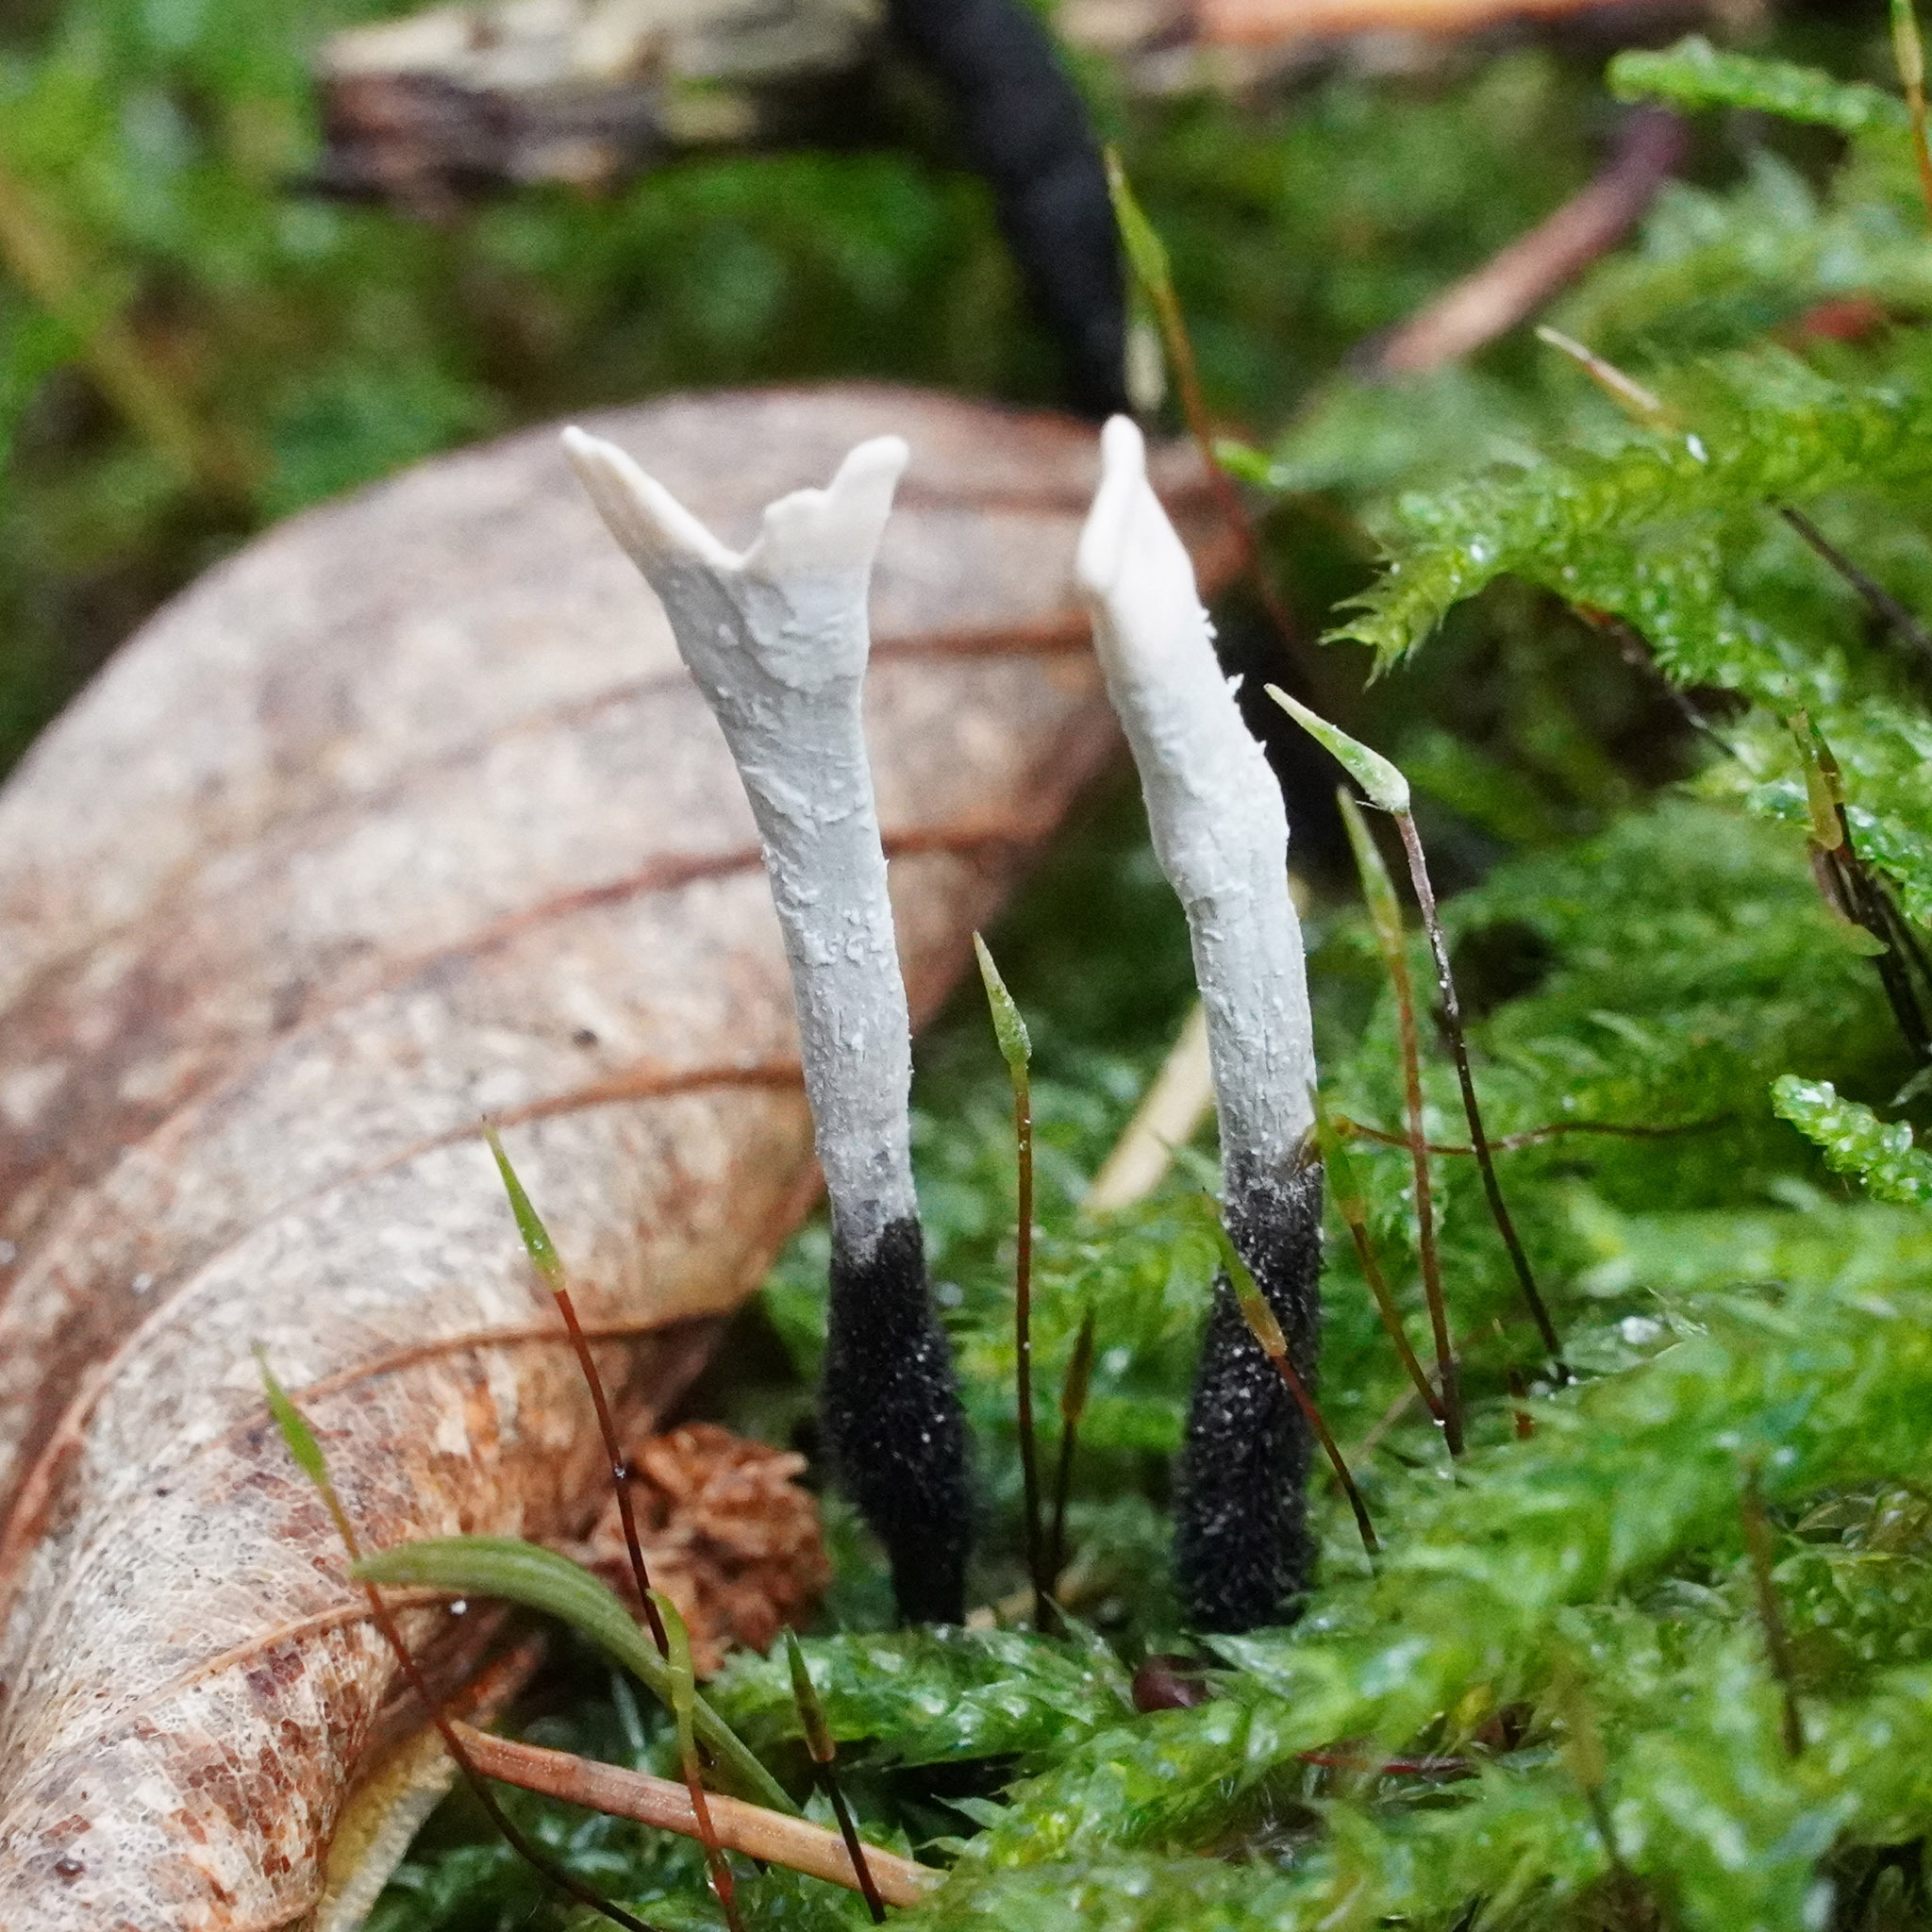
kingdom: Fungi
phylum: Ascomycota
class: Sordariomycetes
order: Xylariales
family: Xylariaceae
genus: Xylaria
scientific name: Xylaria hypoxylon
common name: Candle-snuff fungus
